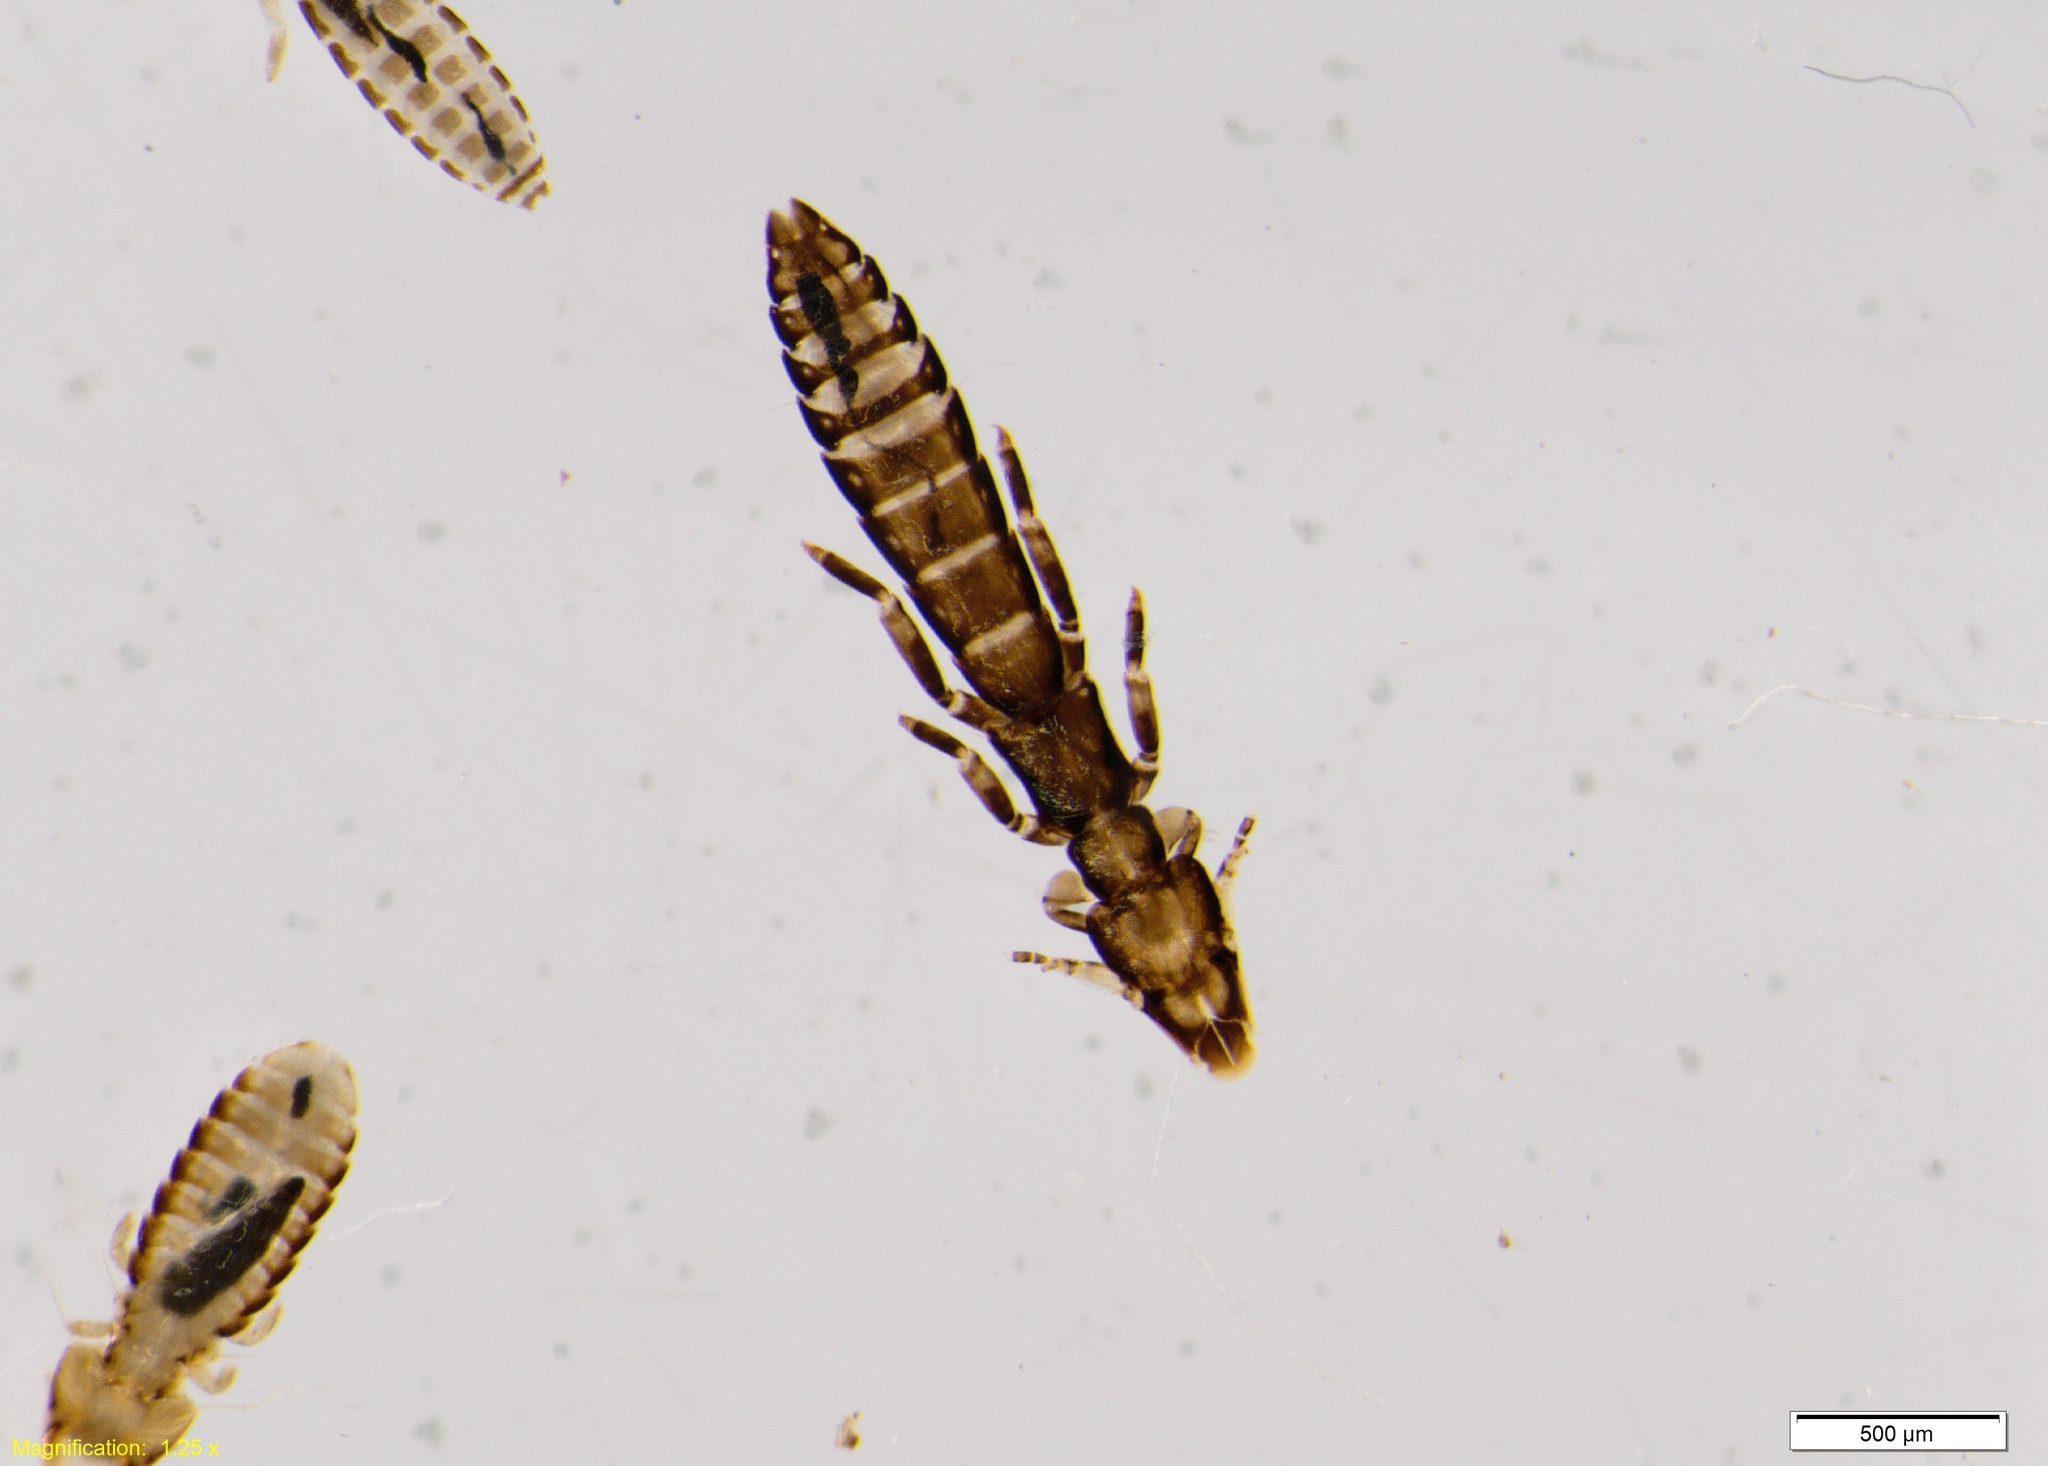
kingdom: Animalia
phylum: Arthropoda
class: Insecta
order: Psocodea
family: Philopteridae
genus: Fulicoffula
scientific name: Fulicoffula lurida
